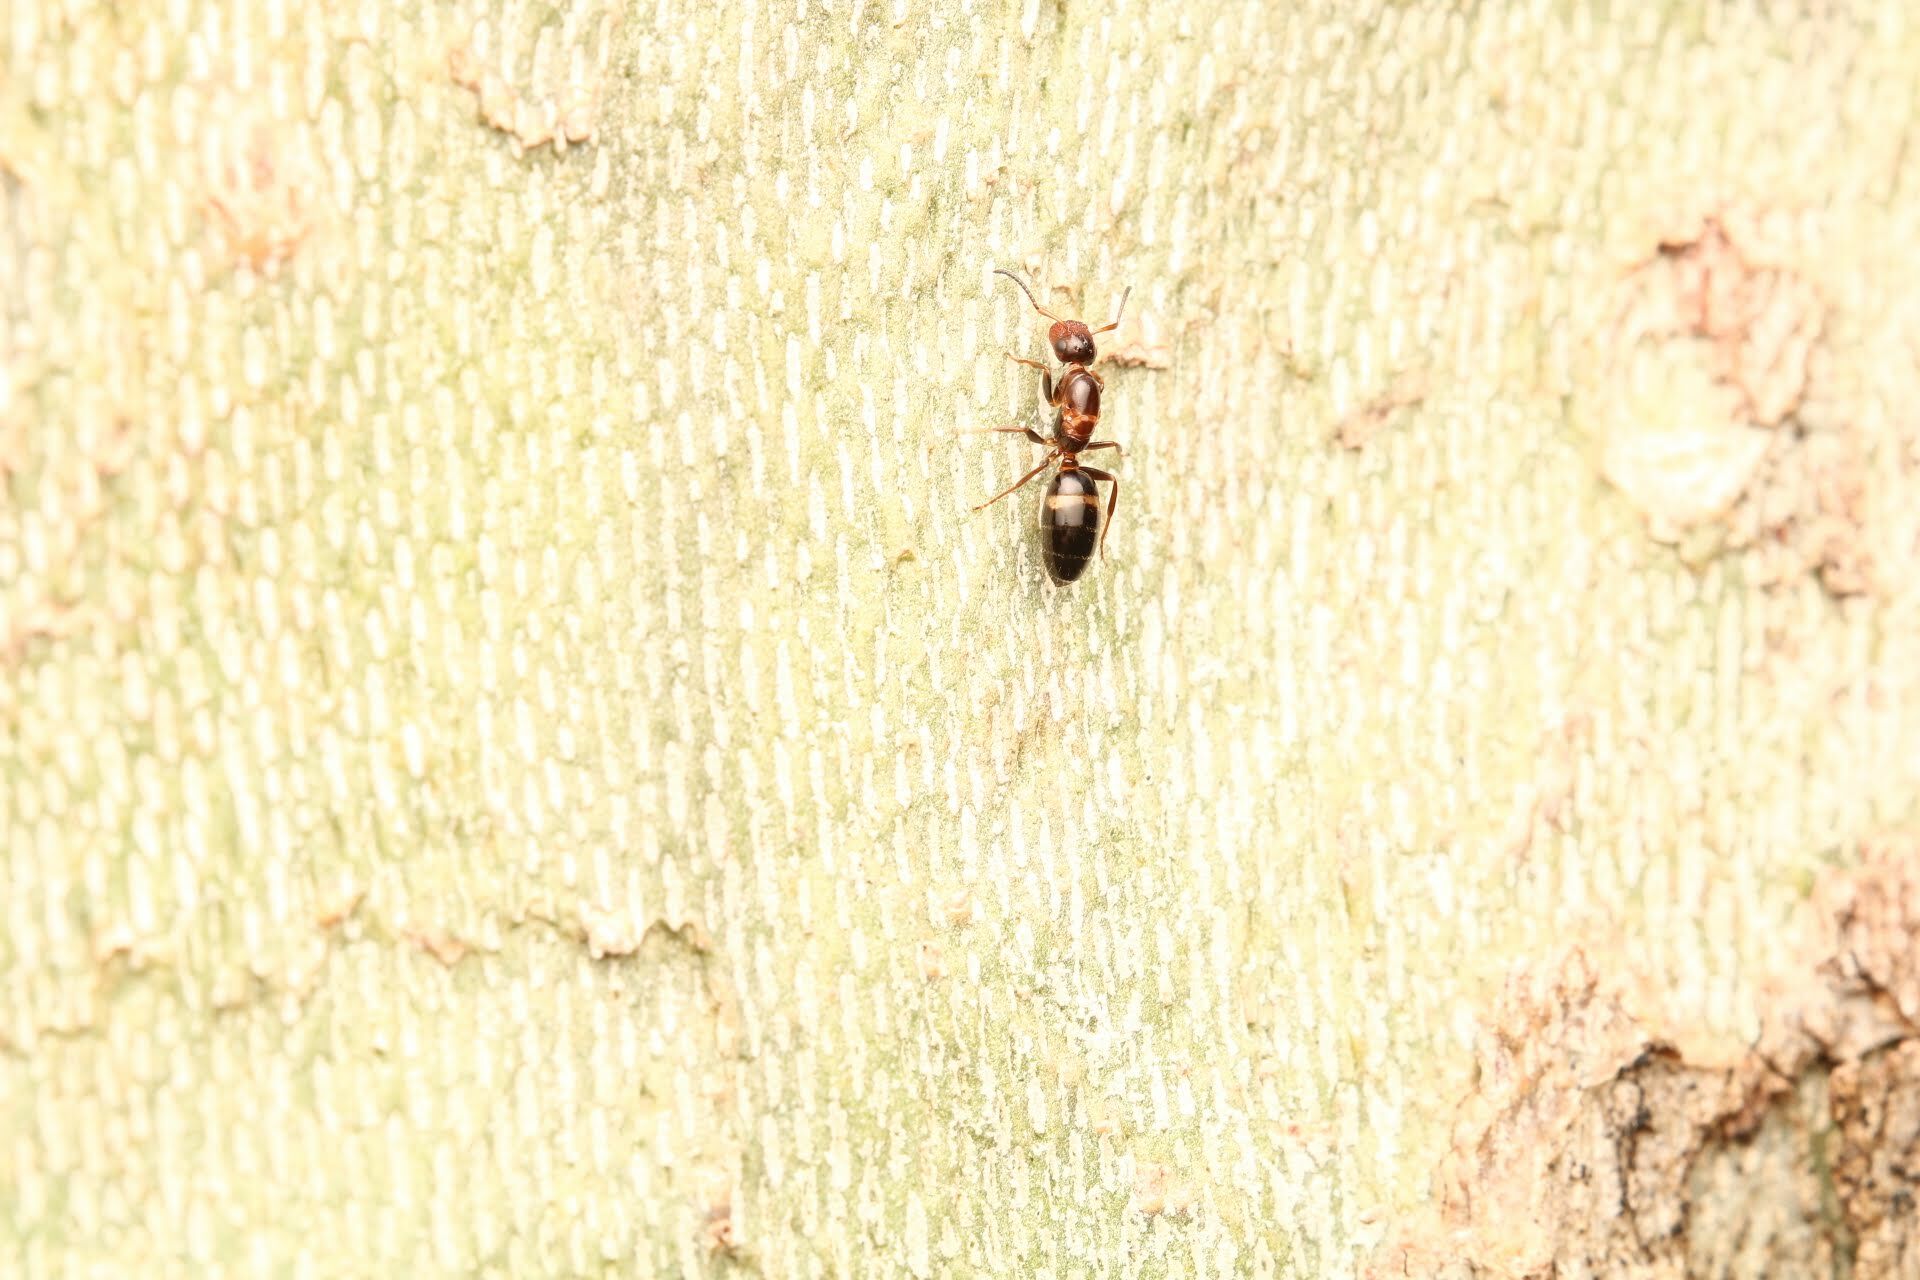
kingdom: Animalia
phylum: Arthropoda
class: Insecta
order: Hymenoptera
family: Formicidae
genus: Camponotus
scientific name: Camponotus truncatus
